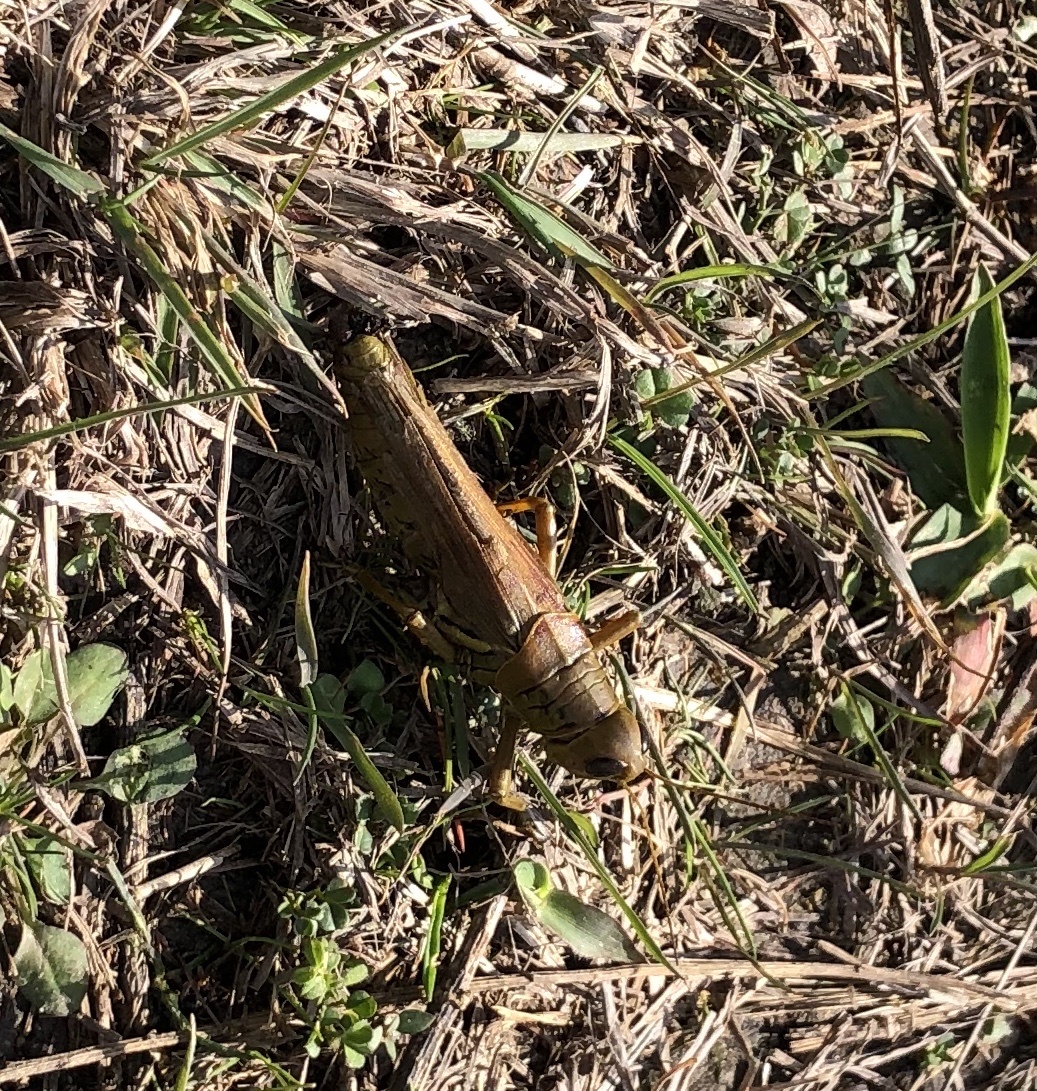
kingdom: Animalia
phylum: Arthropoda
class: Insecta
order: Orthoptera
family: Acrididae
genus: Melanoplus
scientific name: Melanoplus differentialis
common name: Differential grasshopper
